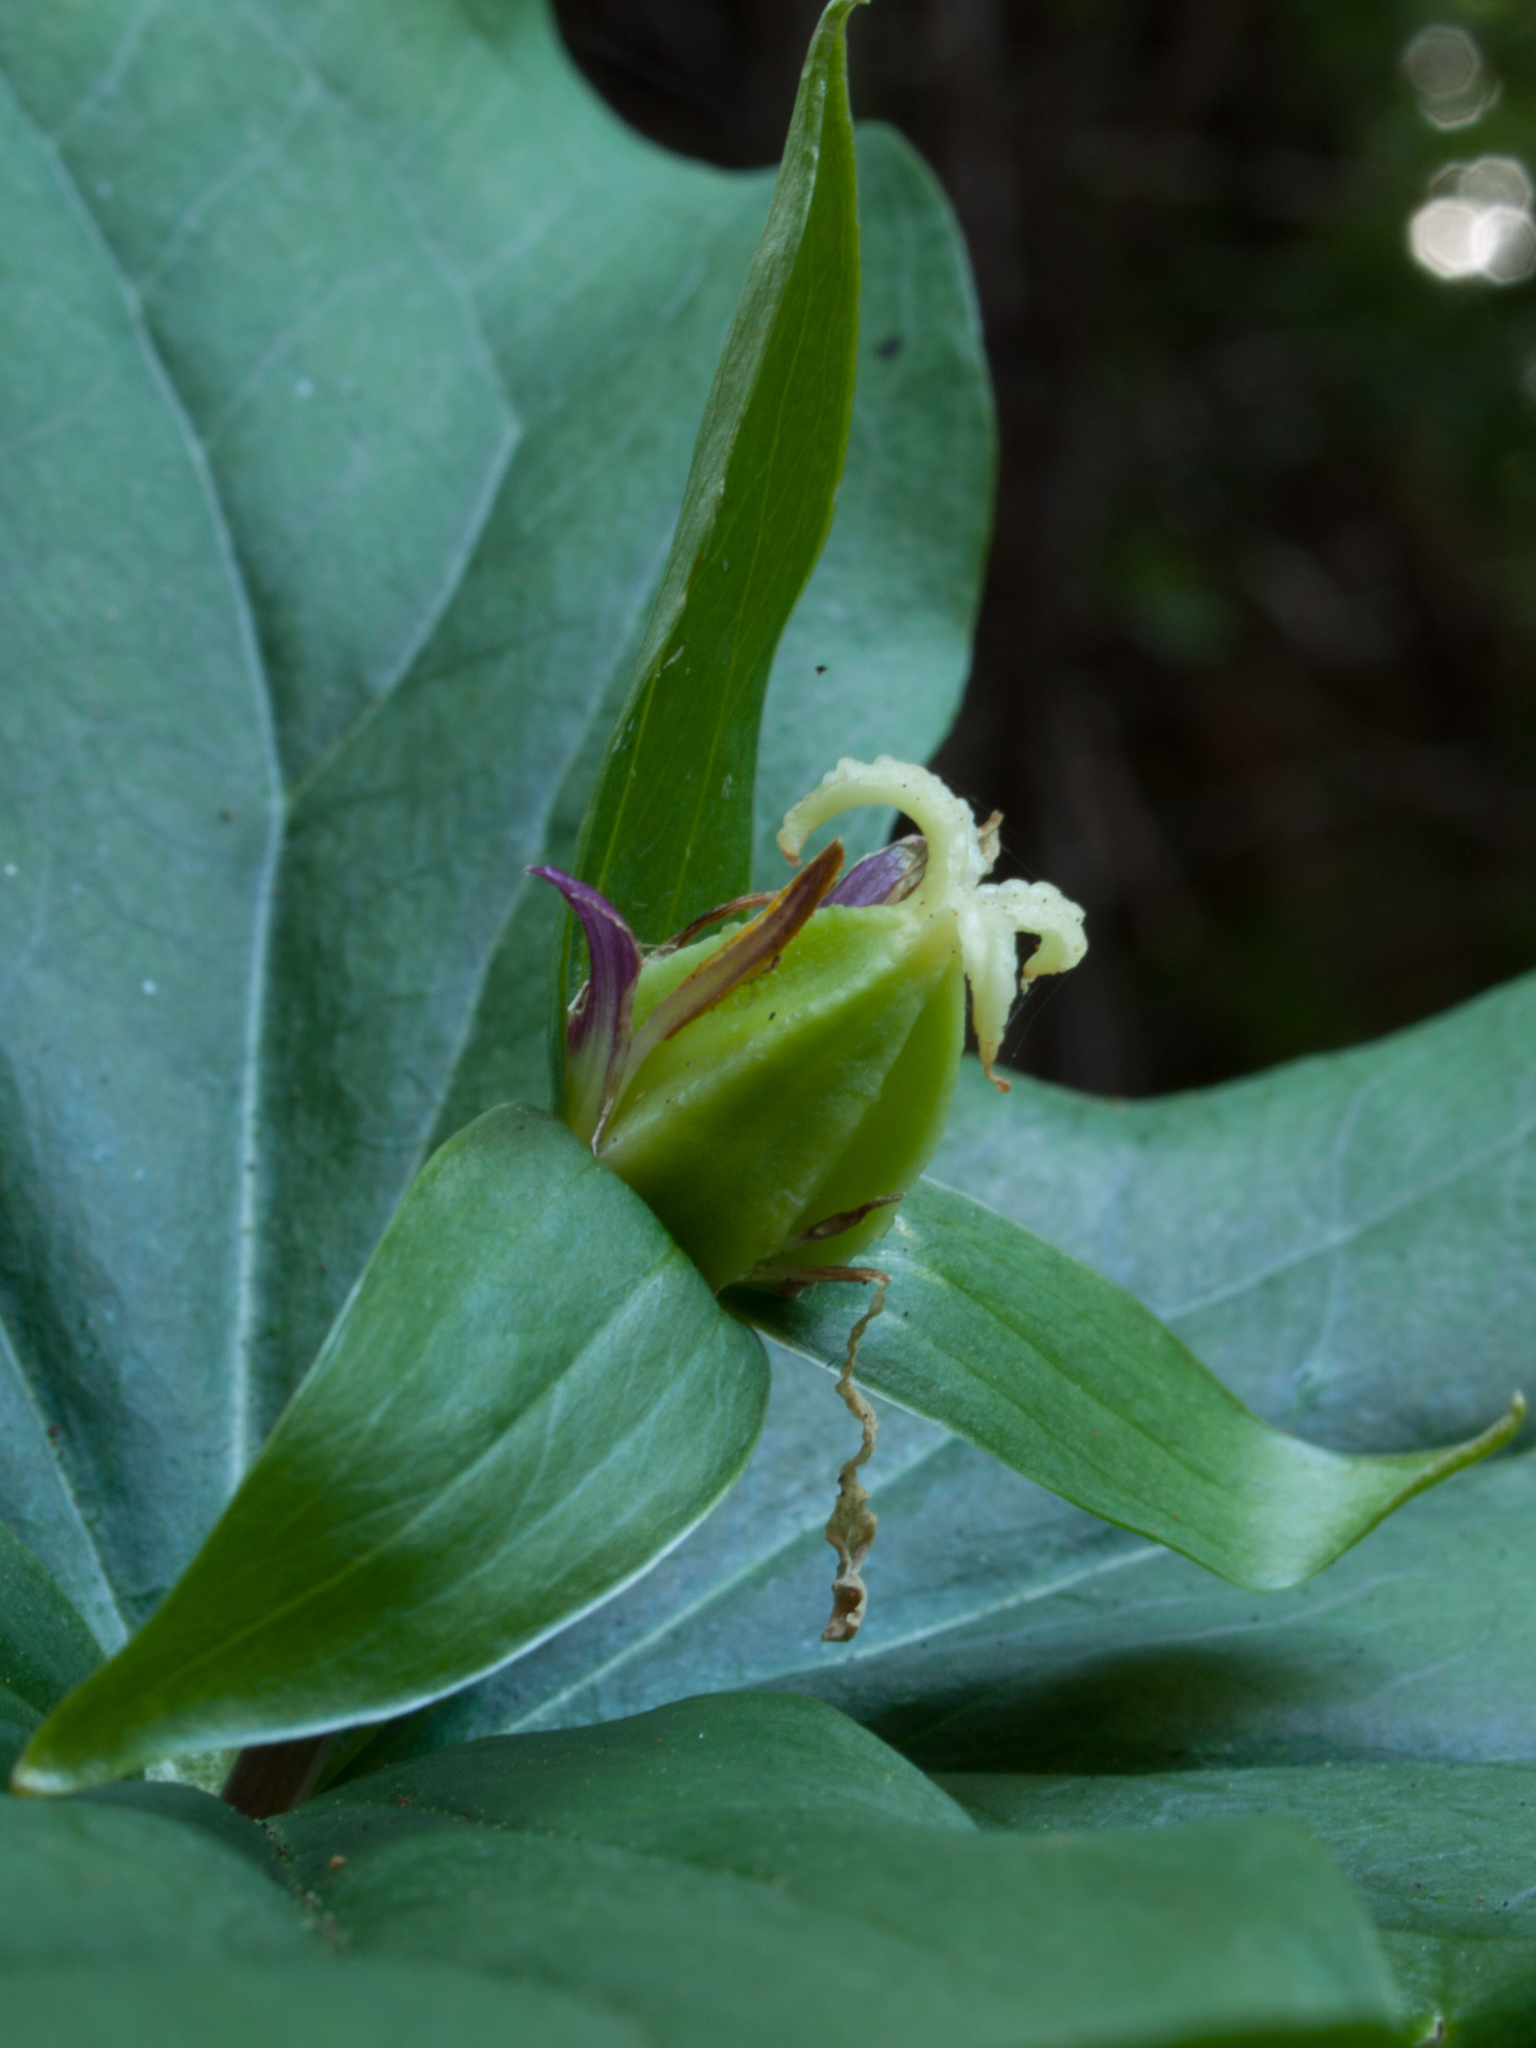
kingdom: Plantae
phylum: Tracheophyta
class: Liliopsida
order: Liliales
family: Melanthiaceae
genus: Trillium
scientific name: Trillium ovatum
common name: Pacific trillium
